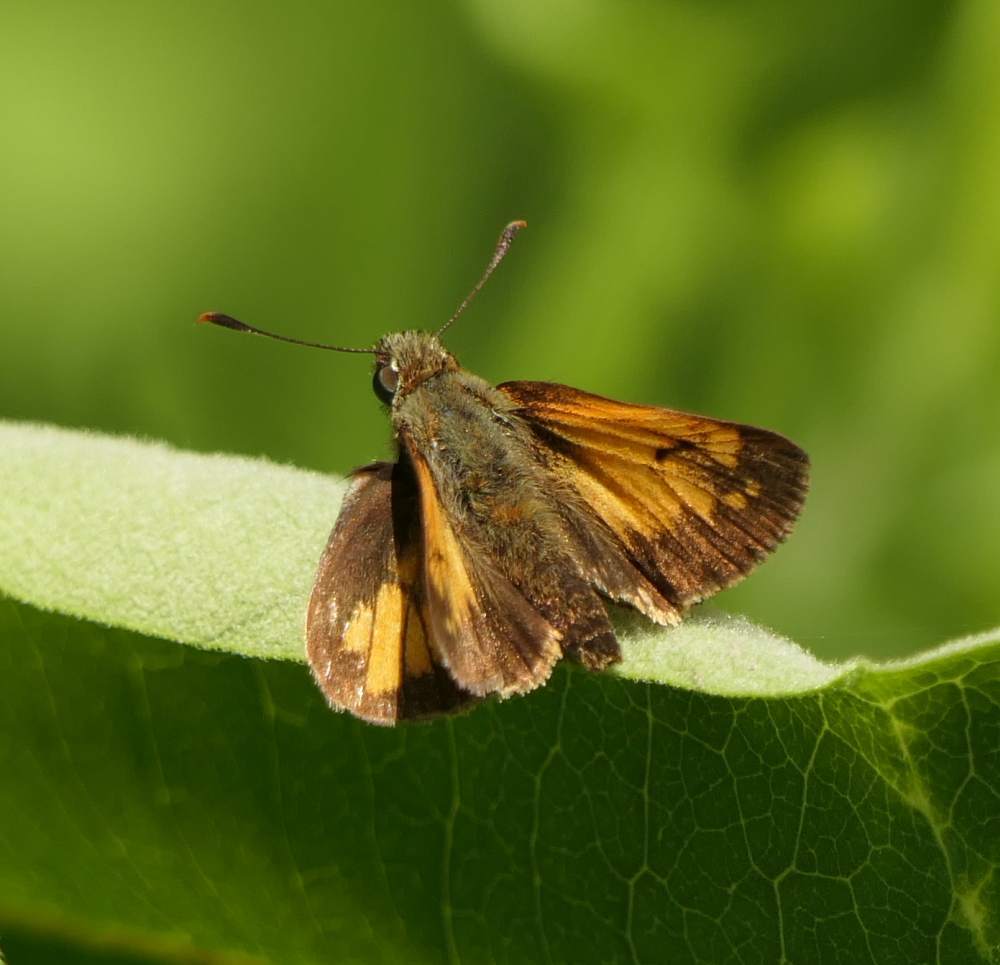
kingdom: Animalia
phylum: Arthropoda
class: Insecta
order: Lepidoptera
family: Hesperiidae
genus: Lon
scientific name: Lon hobomok
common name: Hobomok skipper
